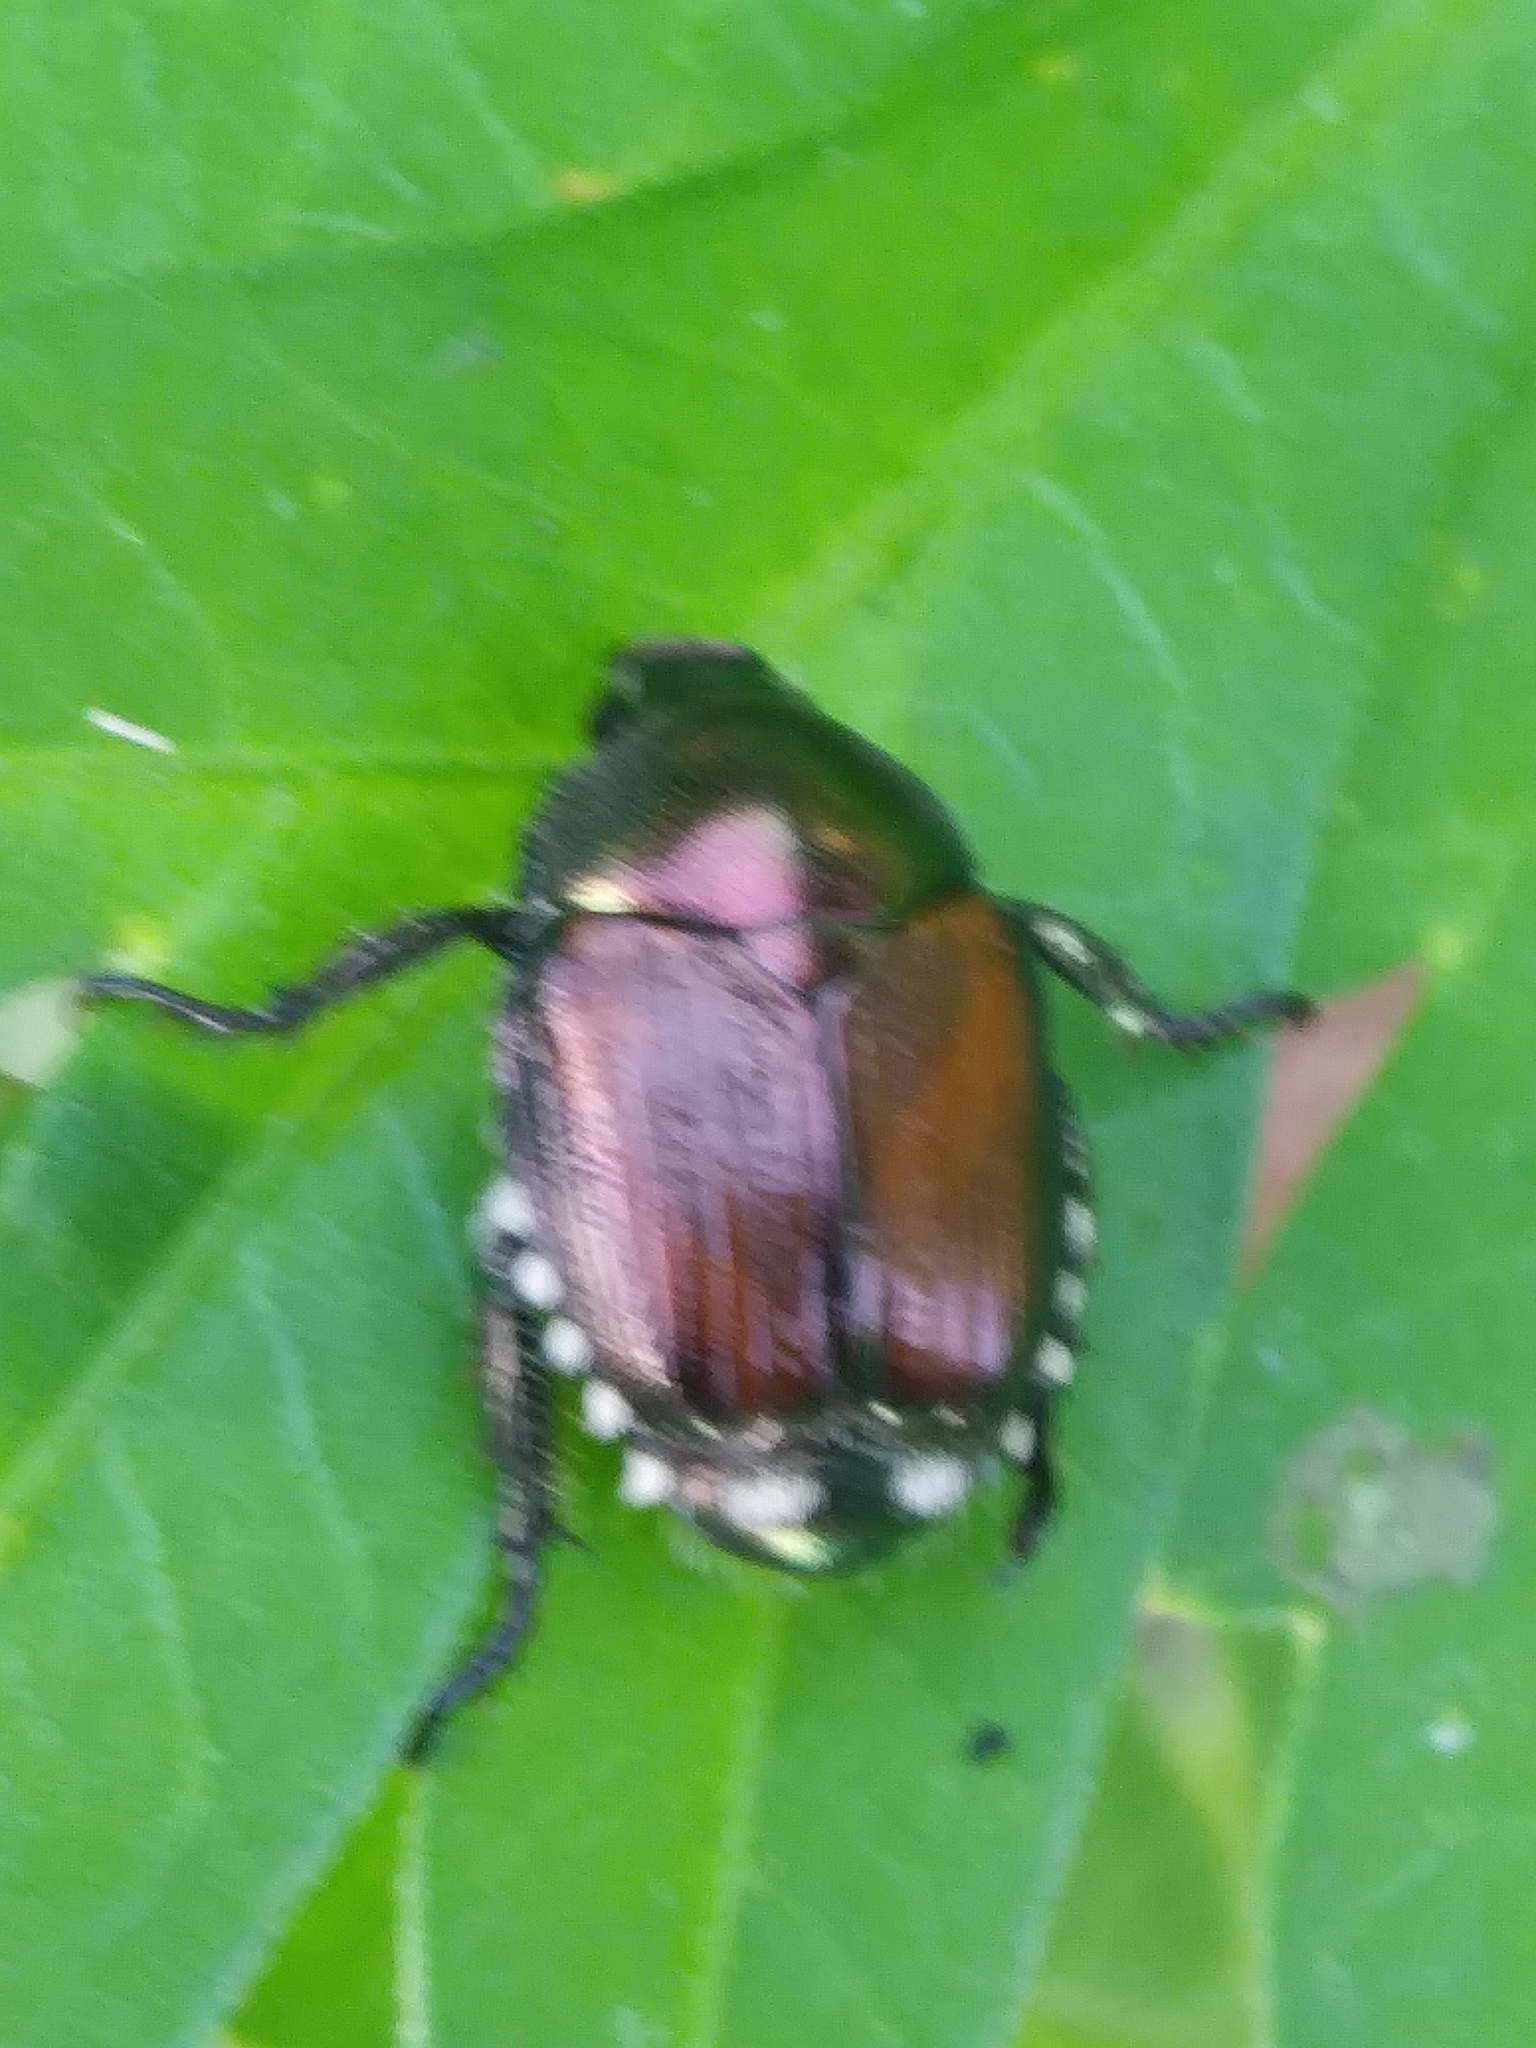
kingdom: Animalia
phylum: Arthropoda
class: Insecta
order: Coleoptera
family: Scarabaeidae
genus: Popillia
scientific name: Popillia japonica
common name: Japanese beetle
